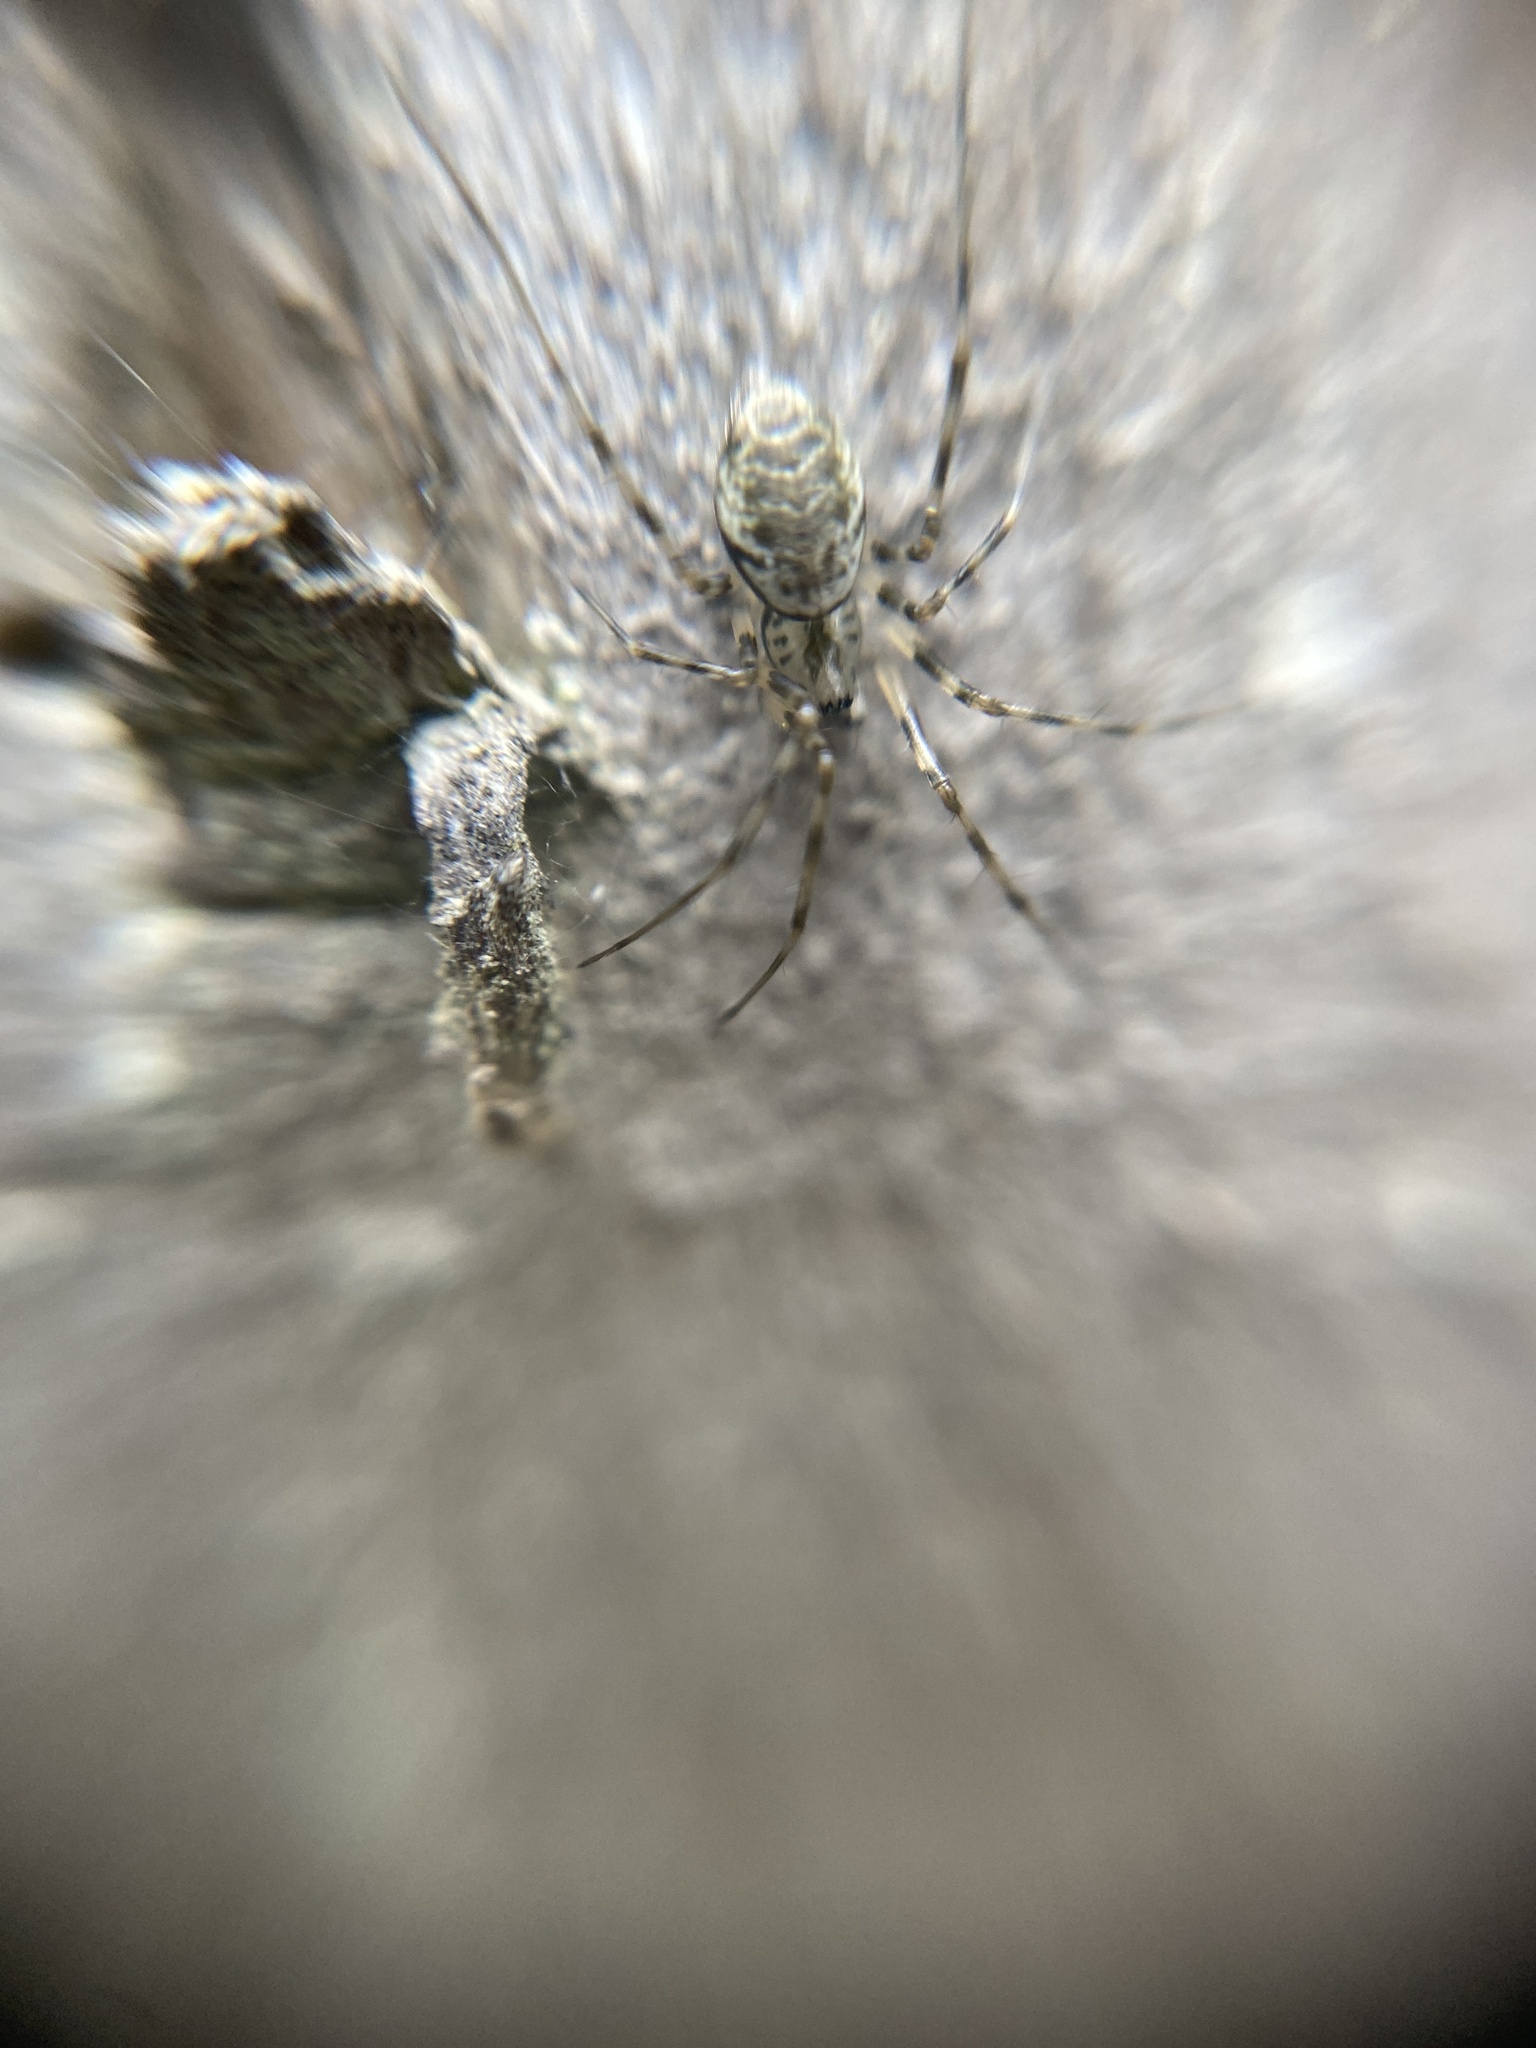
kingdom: Animalia
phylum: Arthropoda
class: Arachnida
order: Araneae
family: Linyphiidae
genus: Drapetisca
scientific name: Drapetisca socialis
